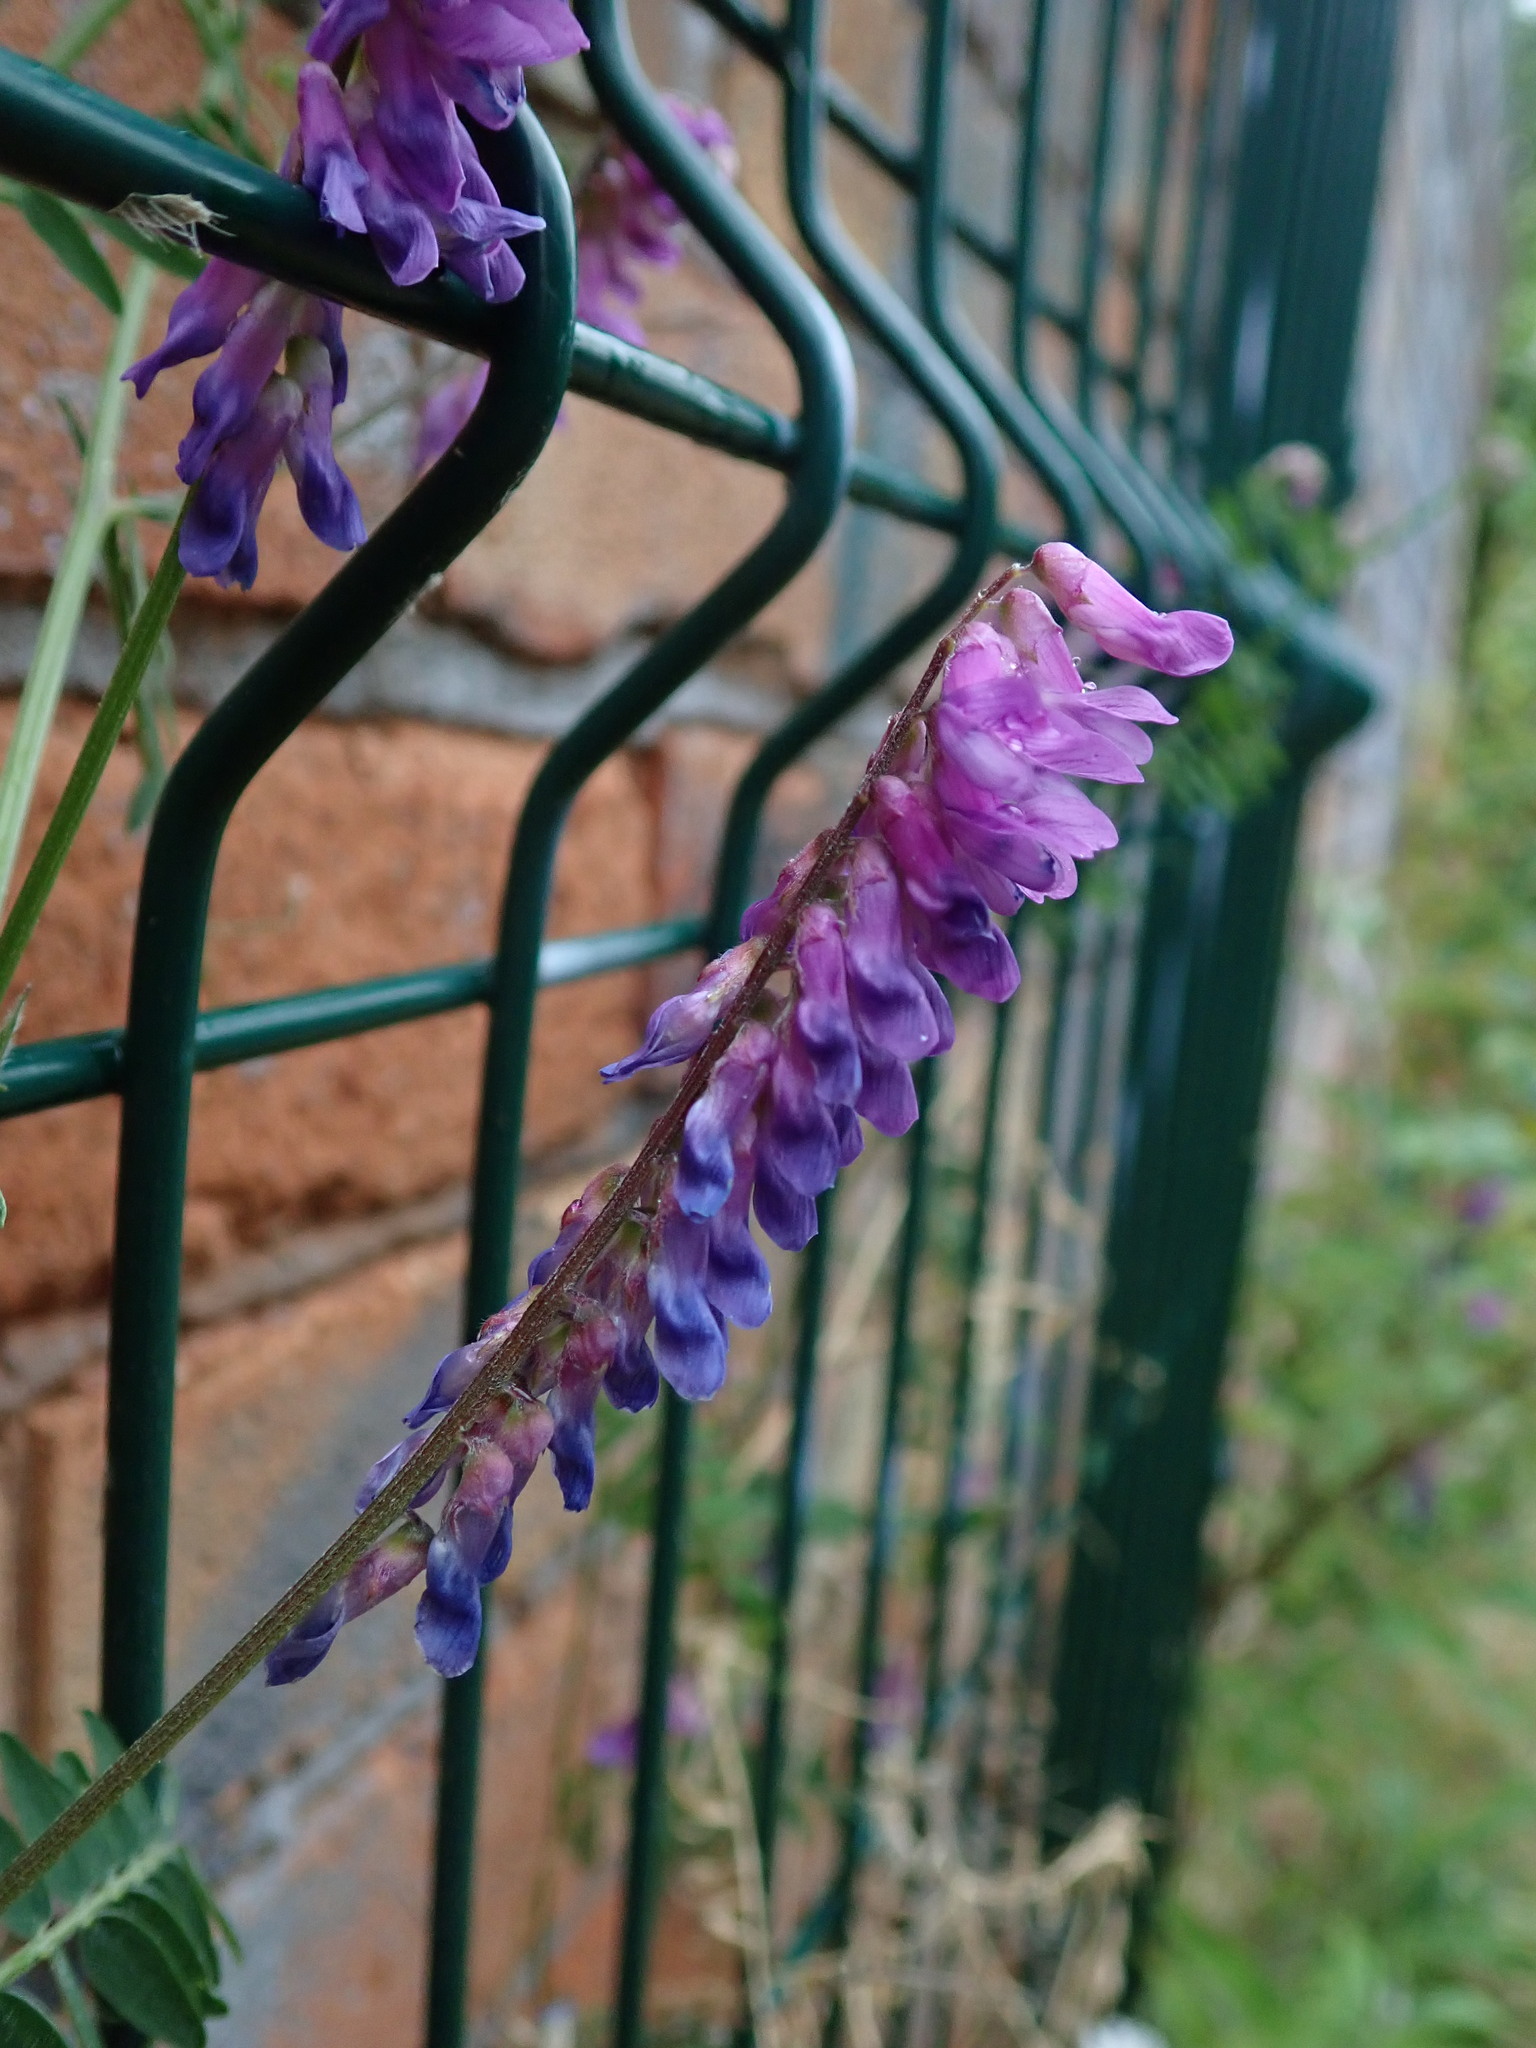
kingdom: Plantae
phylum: Tracheophyta
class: Magnoliopsida
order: Fabales
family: Fabaceae
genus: Vicia
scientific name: Vicia cracca
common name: Bird vetch
